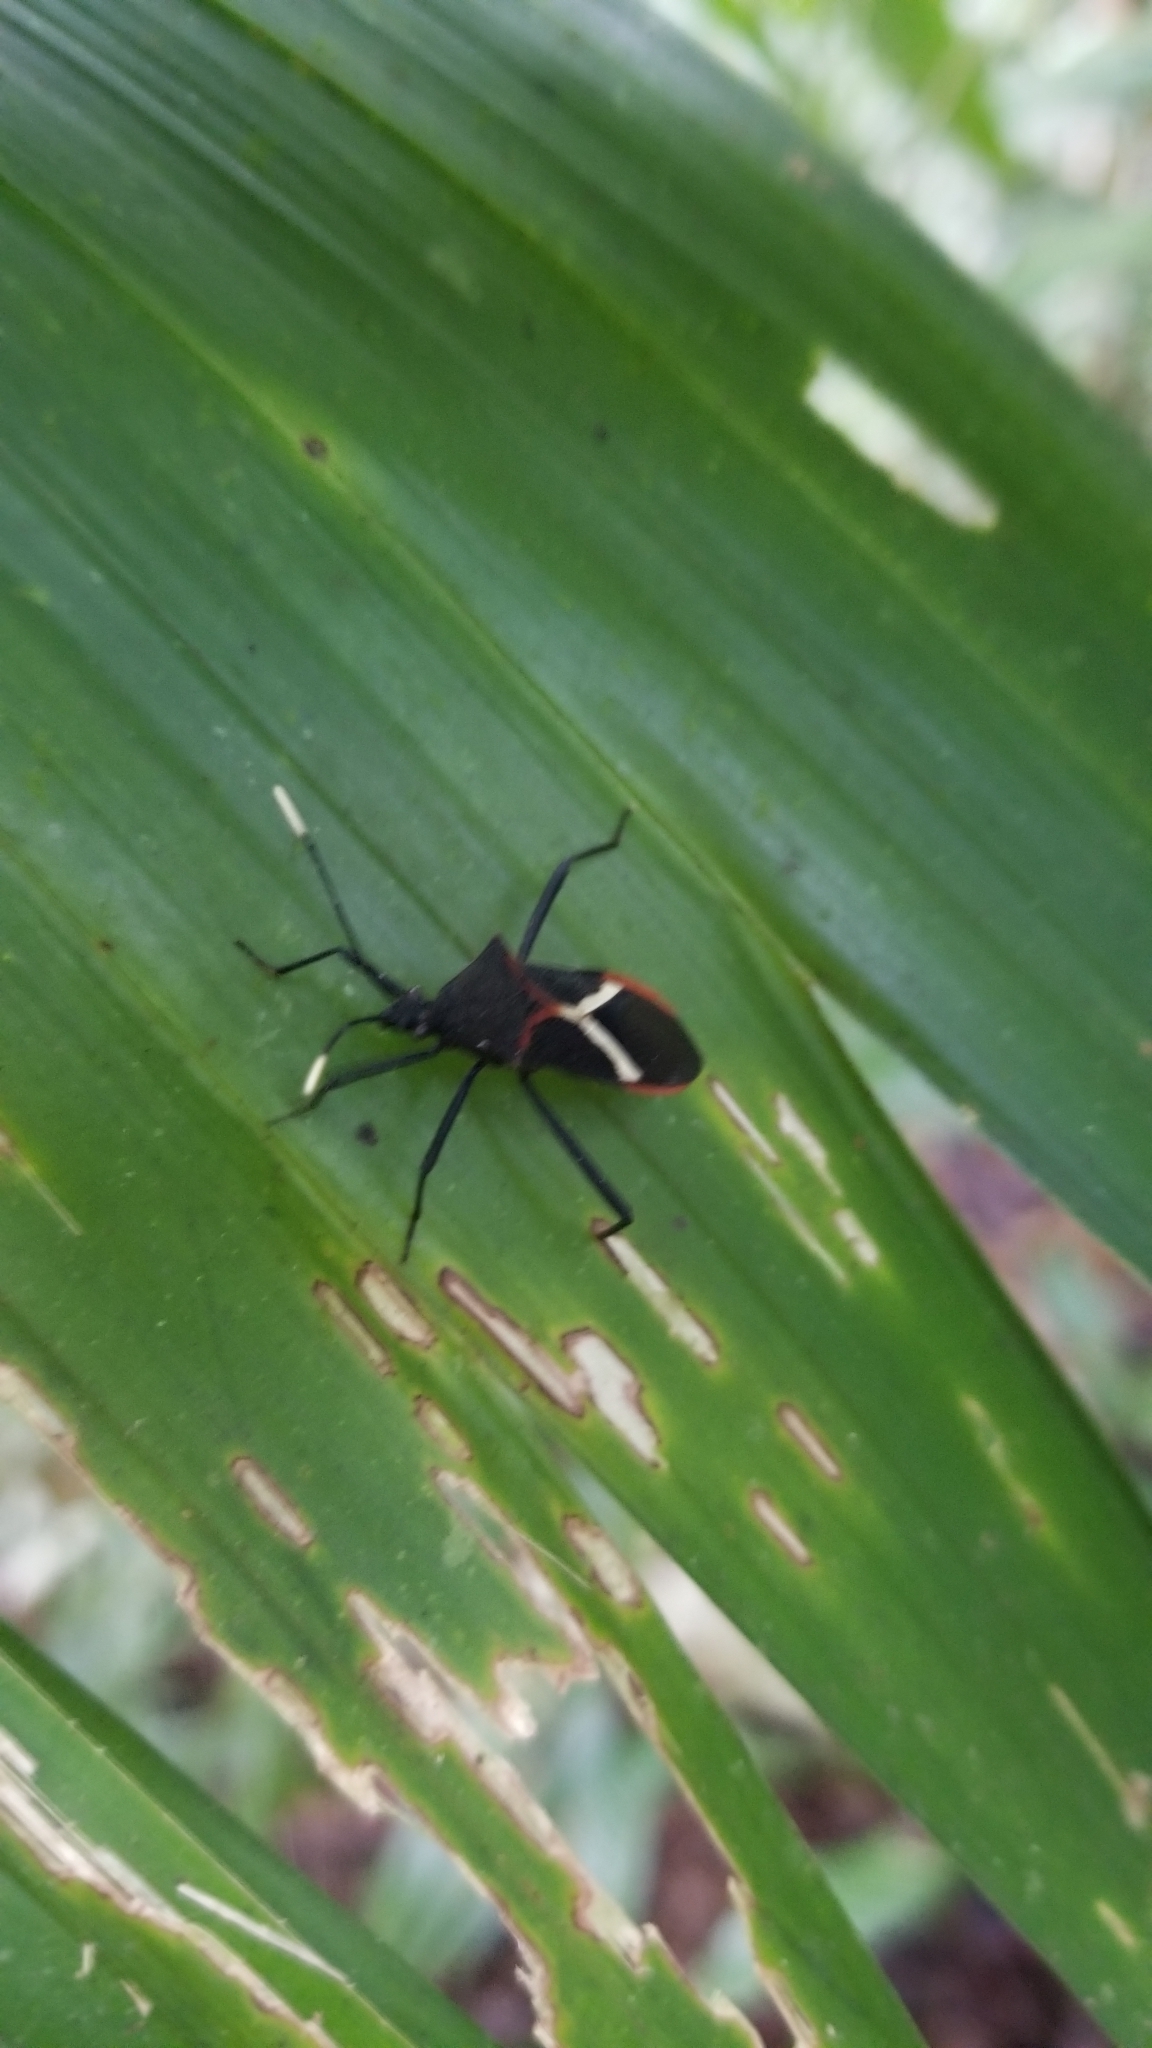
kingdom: Animalia
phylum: Arthropoda
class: Insecta
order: Hemiptera
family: Coreidae
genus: Leptoscelis
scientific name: Leptoscelis conspicuus
